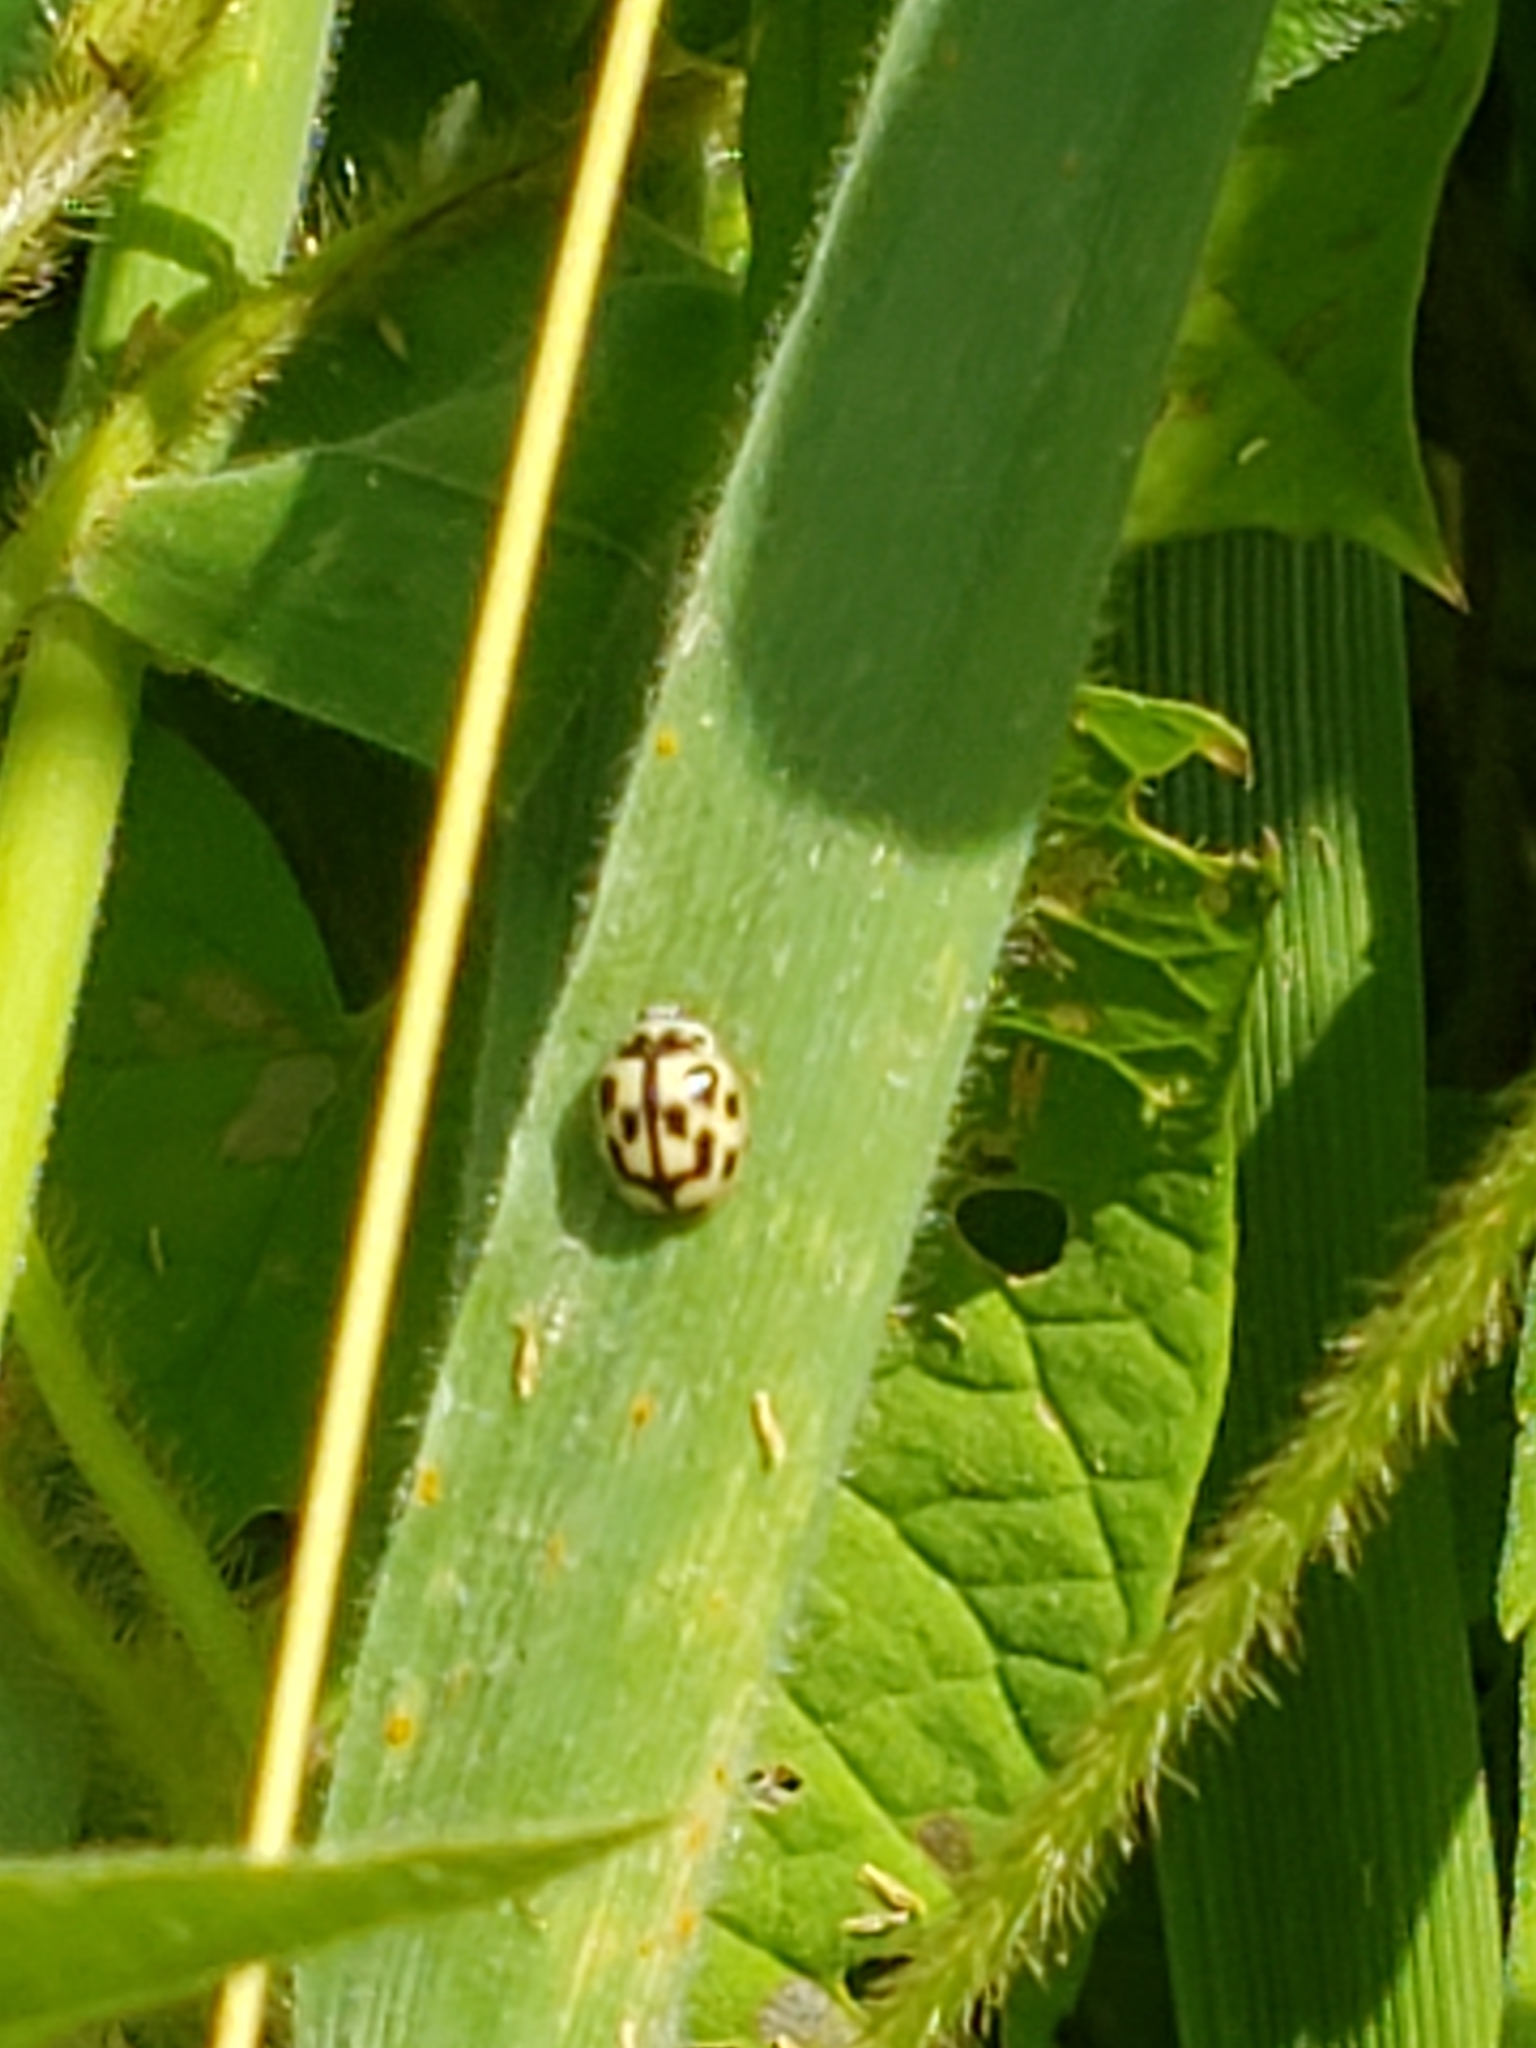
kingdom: Animalia
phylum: Arthropoda
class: Insecta
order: Coleoptera
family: Coccinellidae
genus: Propylaea
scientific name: Propylaea quatuordecimpunctata
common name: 14-spotted ladybird beetle
